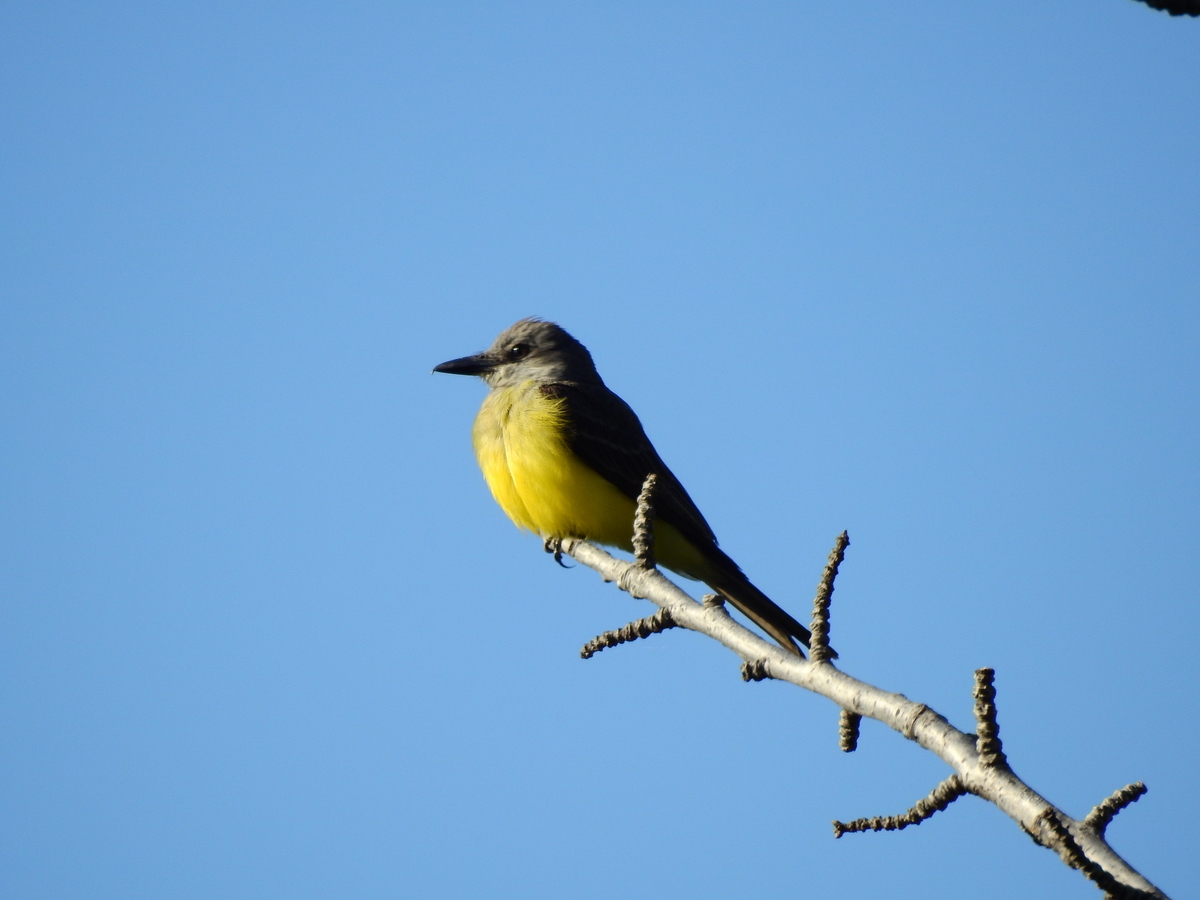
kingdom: Animalia
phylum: Chordata
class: Aves
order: Passeriformes
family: Tyrannidae
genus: Tyrannus
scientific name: Tyrannus melancholicus
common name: Tropical kingbird
